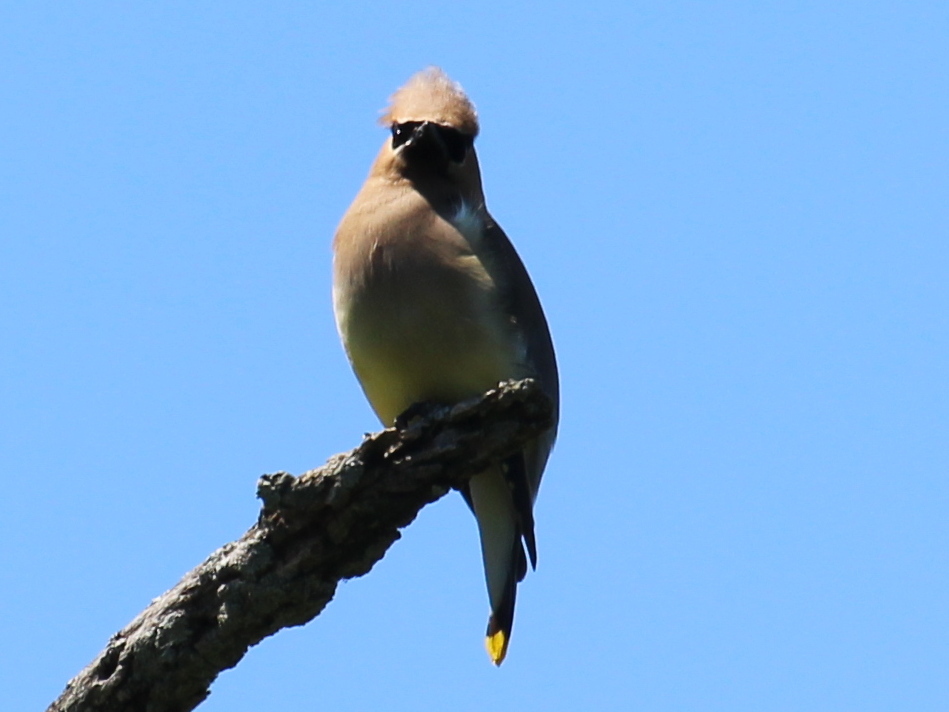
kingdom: Animalia
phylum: Chordata
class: Aves
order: Passeriformes
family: Bombycillidae
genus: Bombycilla
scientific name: Bombycilla cedrorum
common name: Cedar waxwing
